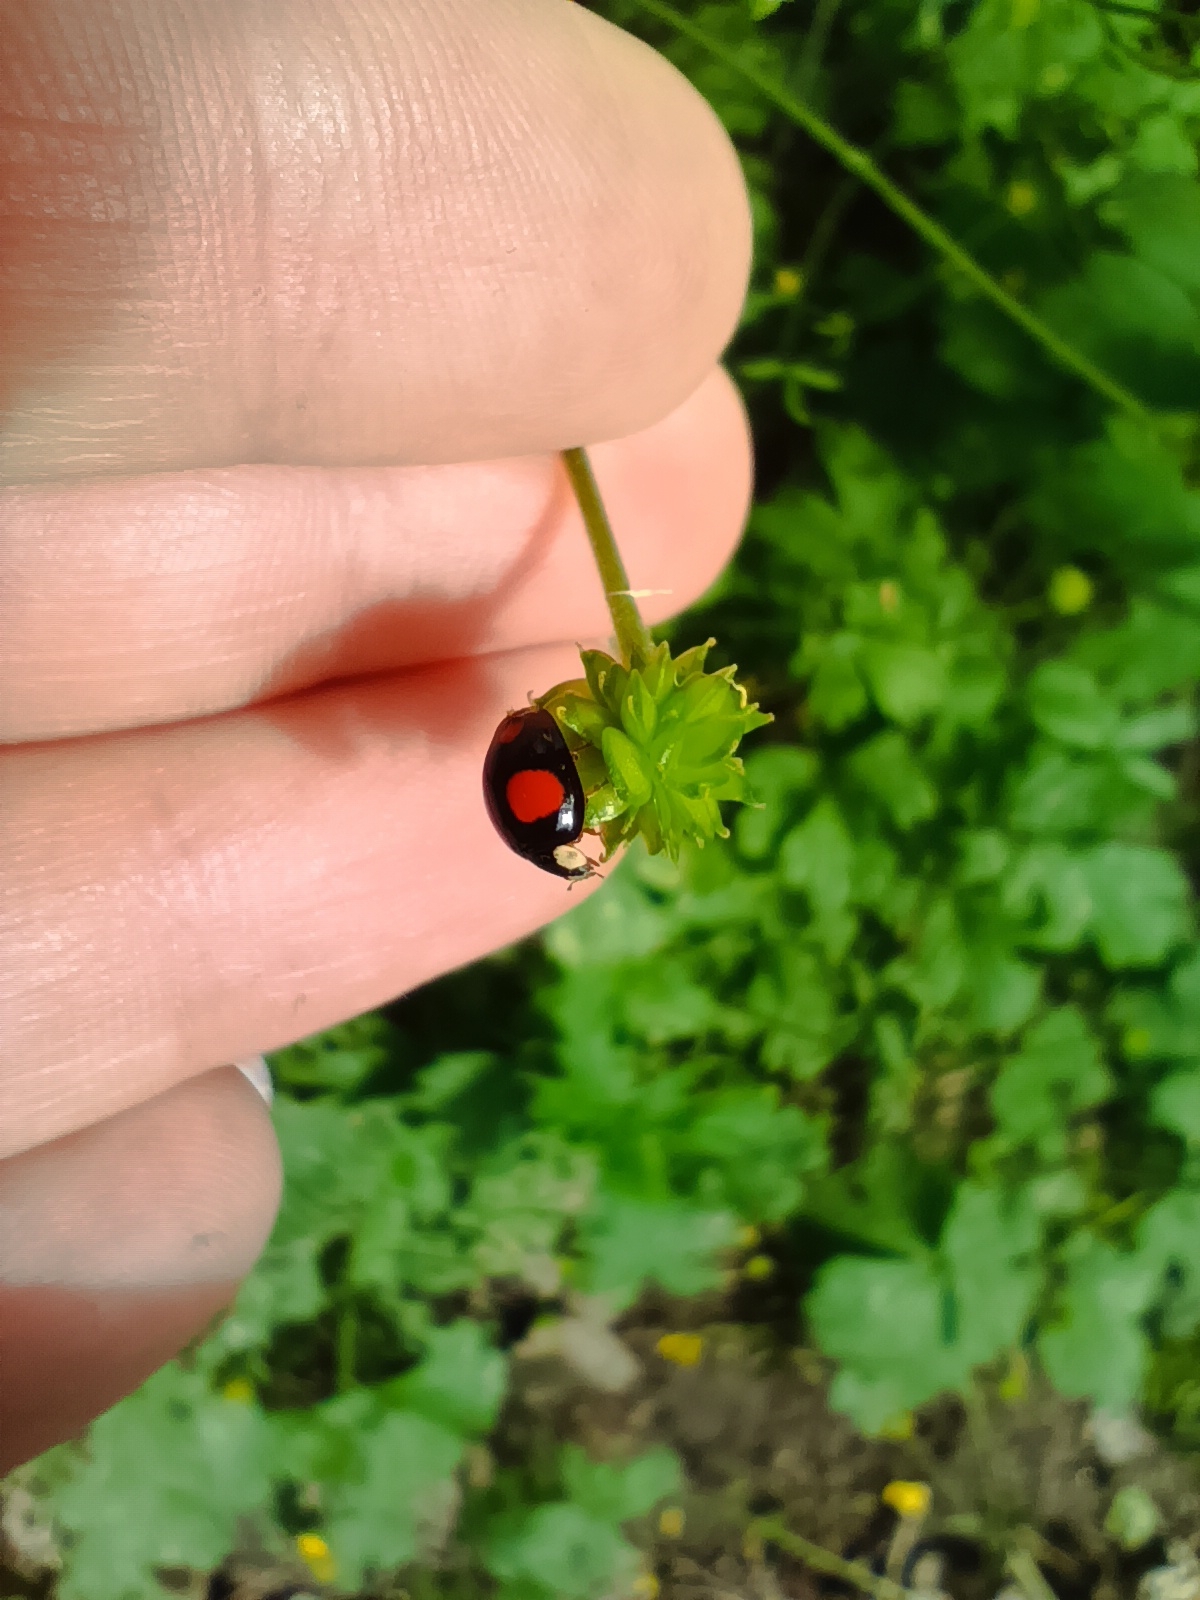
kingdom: Animalia
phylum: Arthropoda
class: Insecta
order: Coleoptera
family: Coccinellidae
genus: Harmonia
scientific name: Harmonia axyridis
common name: Harlequin ladybird
